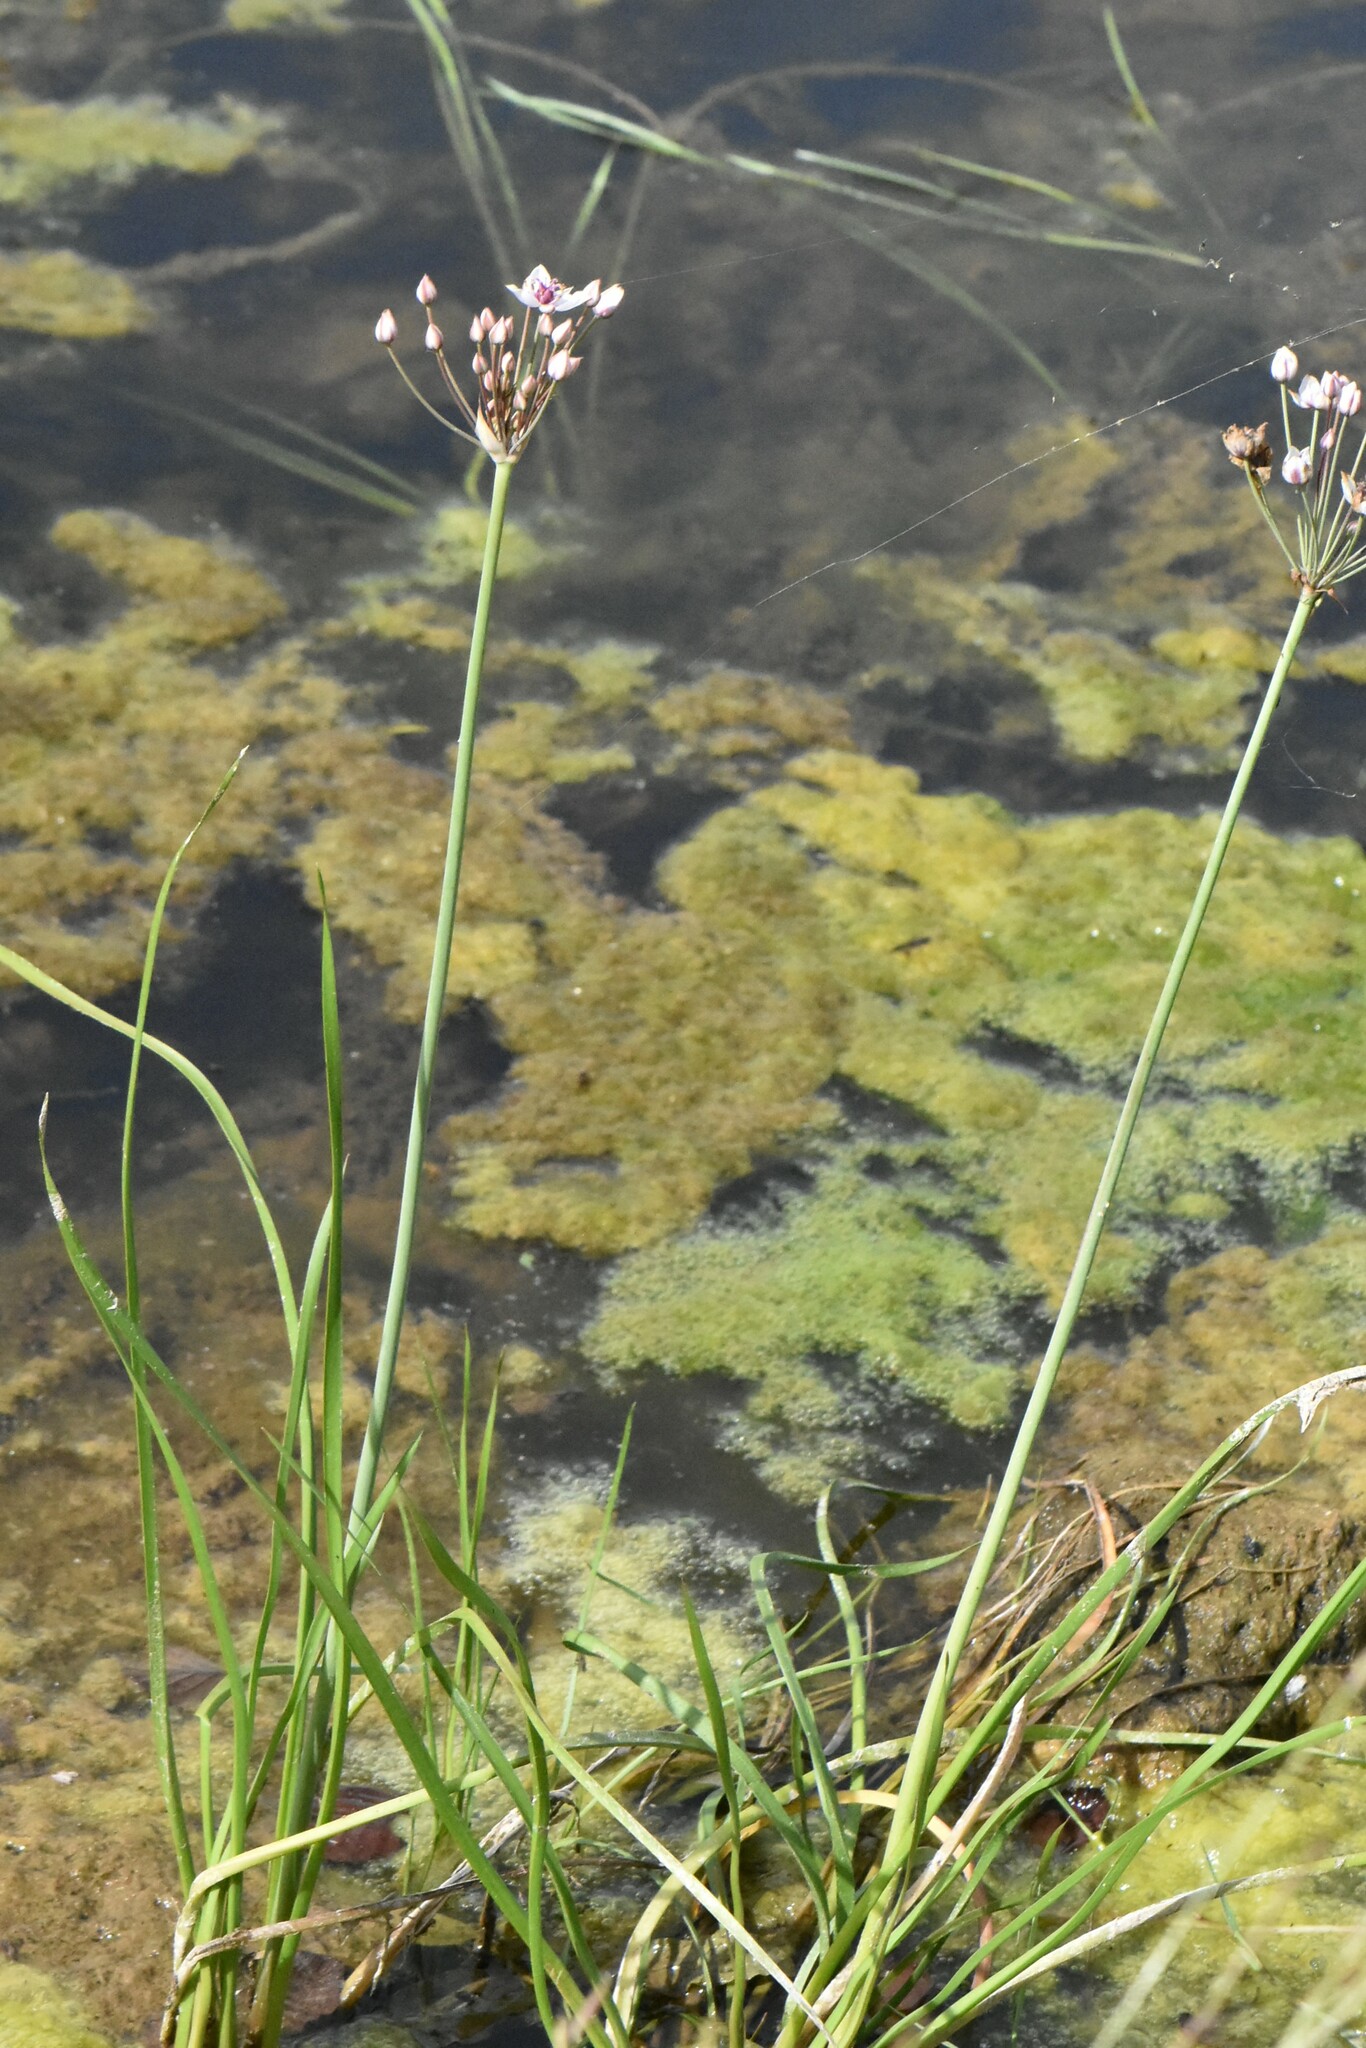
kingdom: Plantae
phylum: Tracheophyta
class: Liliopsida
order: Alismatales
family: Butomaceae
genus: Butomus
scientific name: Butomus umbellatus
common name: Flowering-rush
